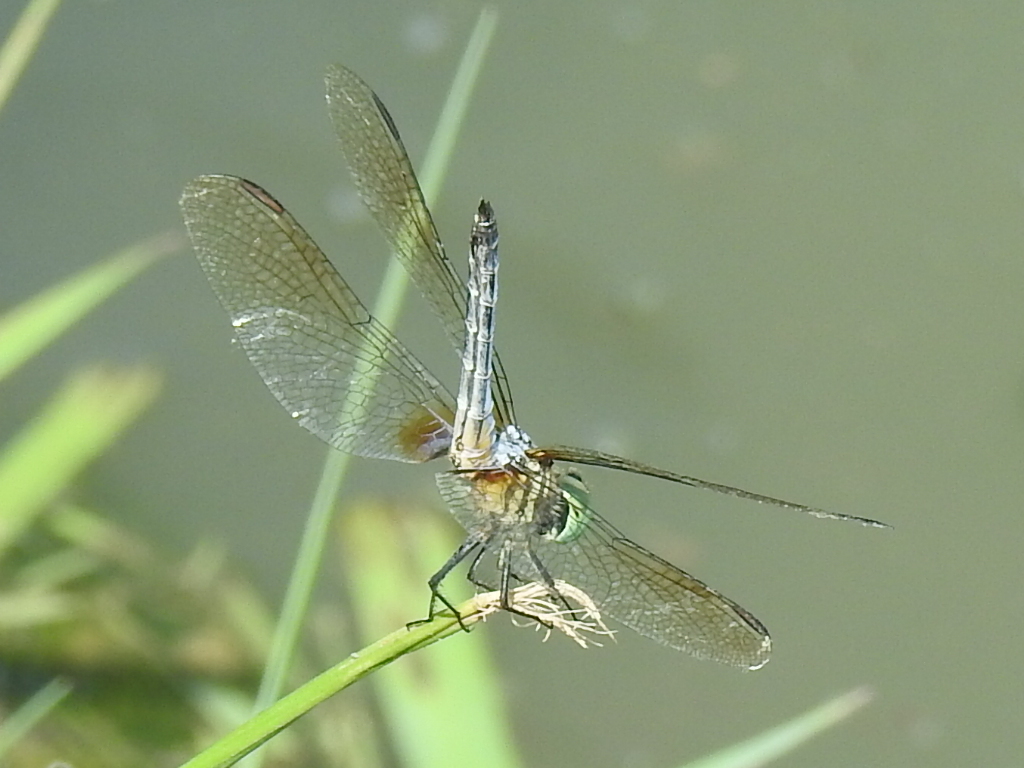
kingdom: Animalia
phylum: Arthropoda
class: Insecta
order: Odonata
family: Libellulidae
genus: Pachydiplax
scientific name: Pachydiplax longipennis
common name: Blue dasher
